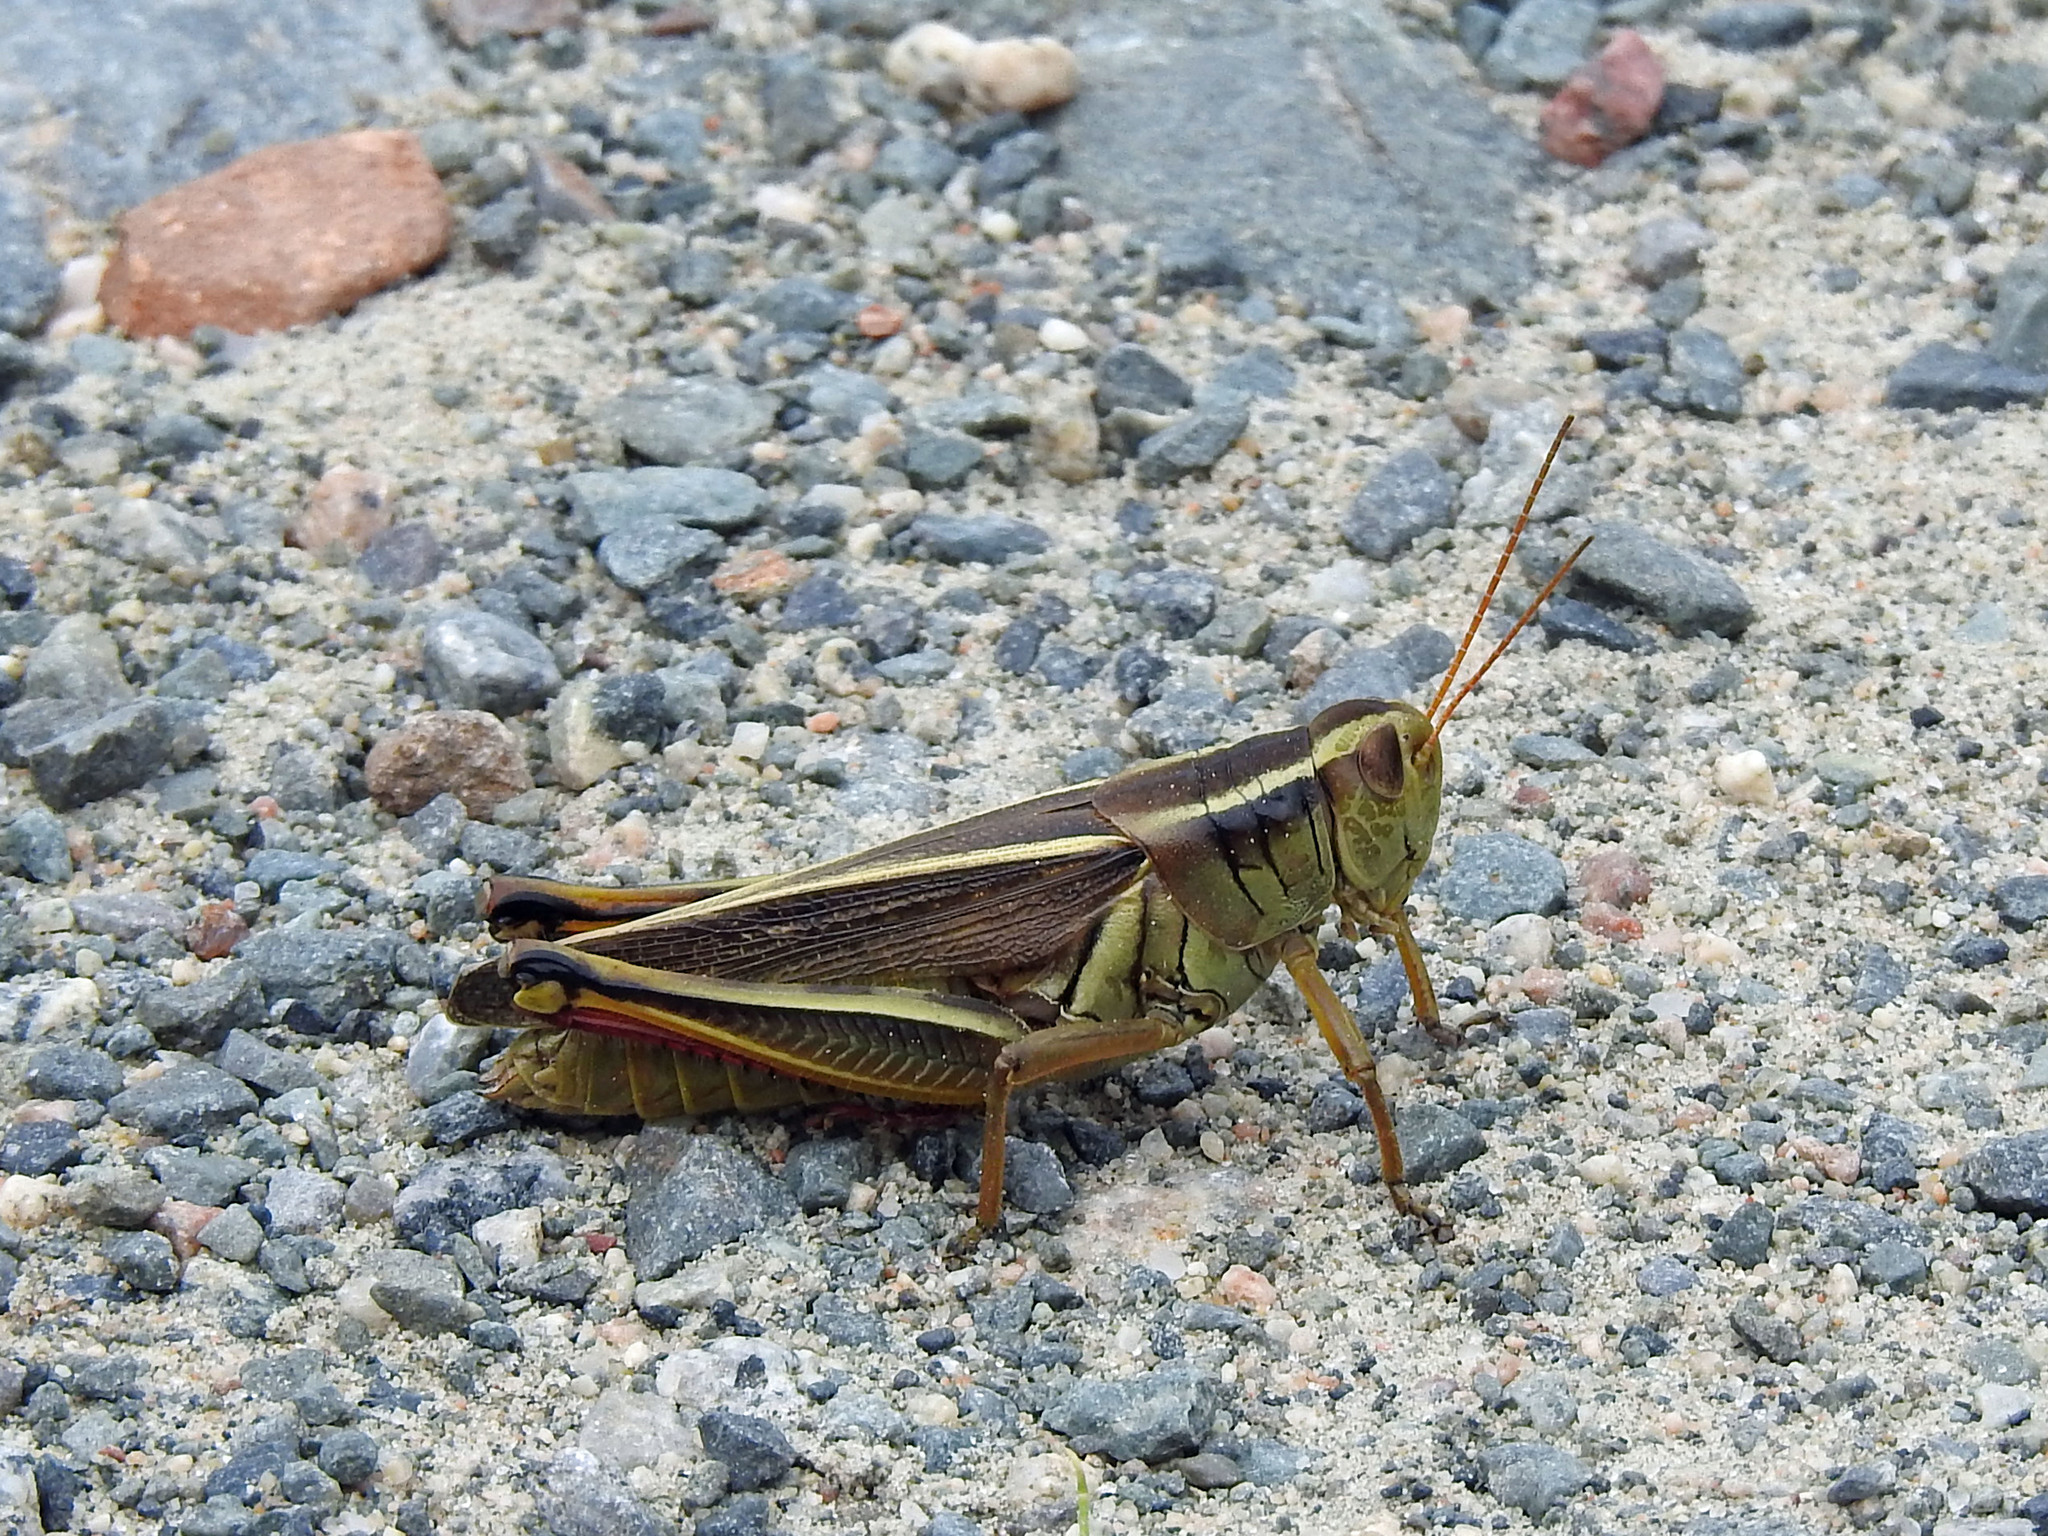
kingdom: Animalia
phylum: Arthropoda
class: Insecta
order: Orthoptera
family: Acrididae
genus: Melanoplus
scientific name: Melanoplus bivittatus
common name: Two-striped grasshopper
